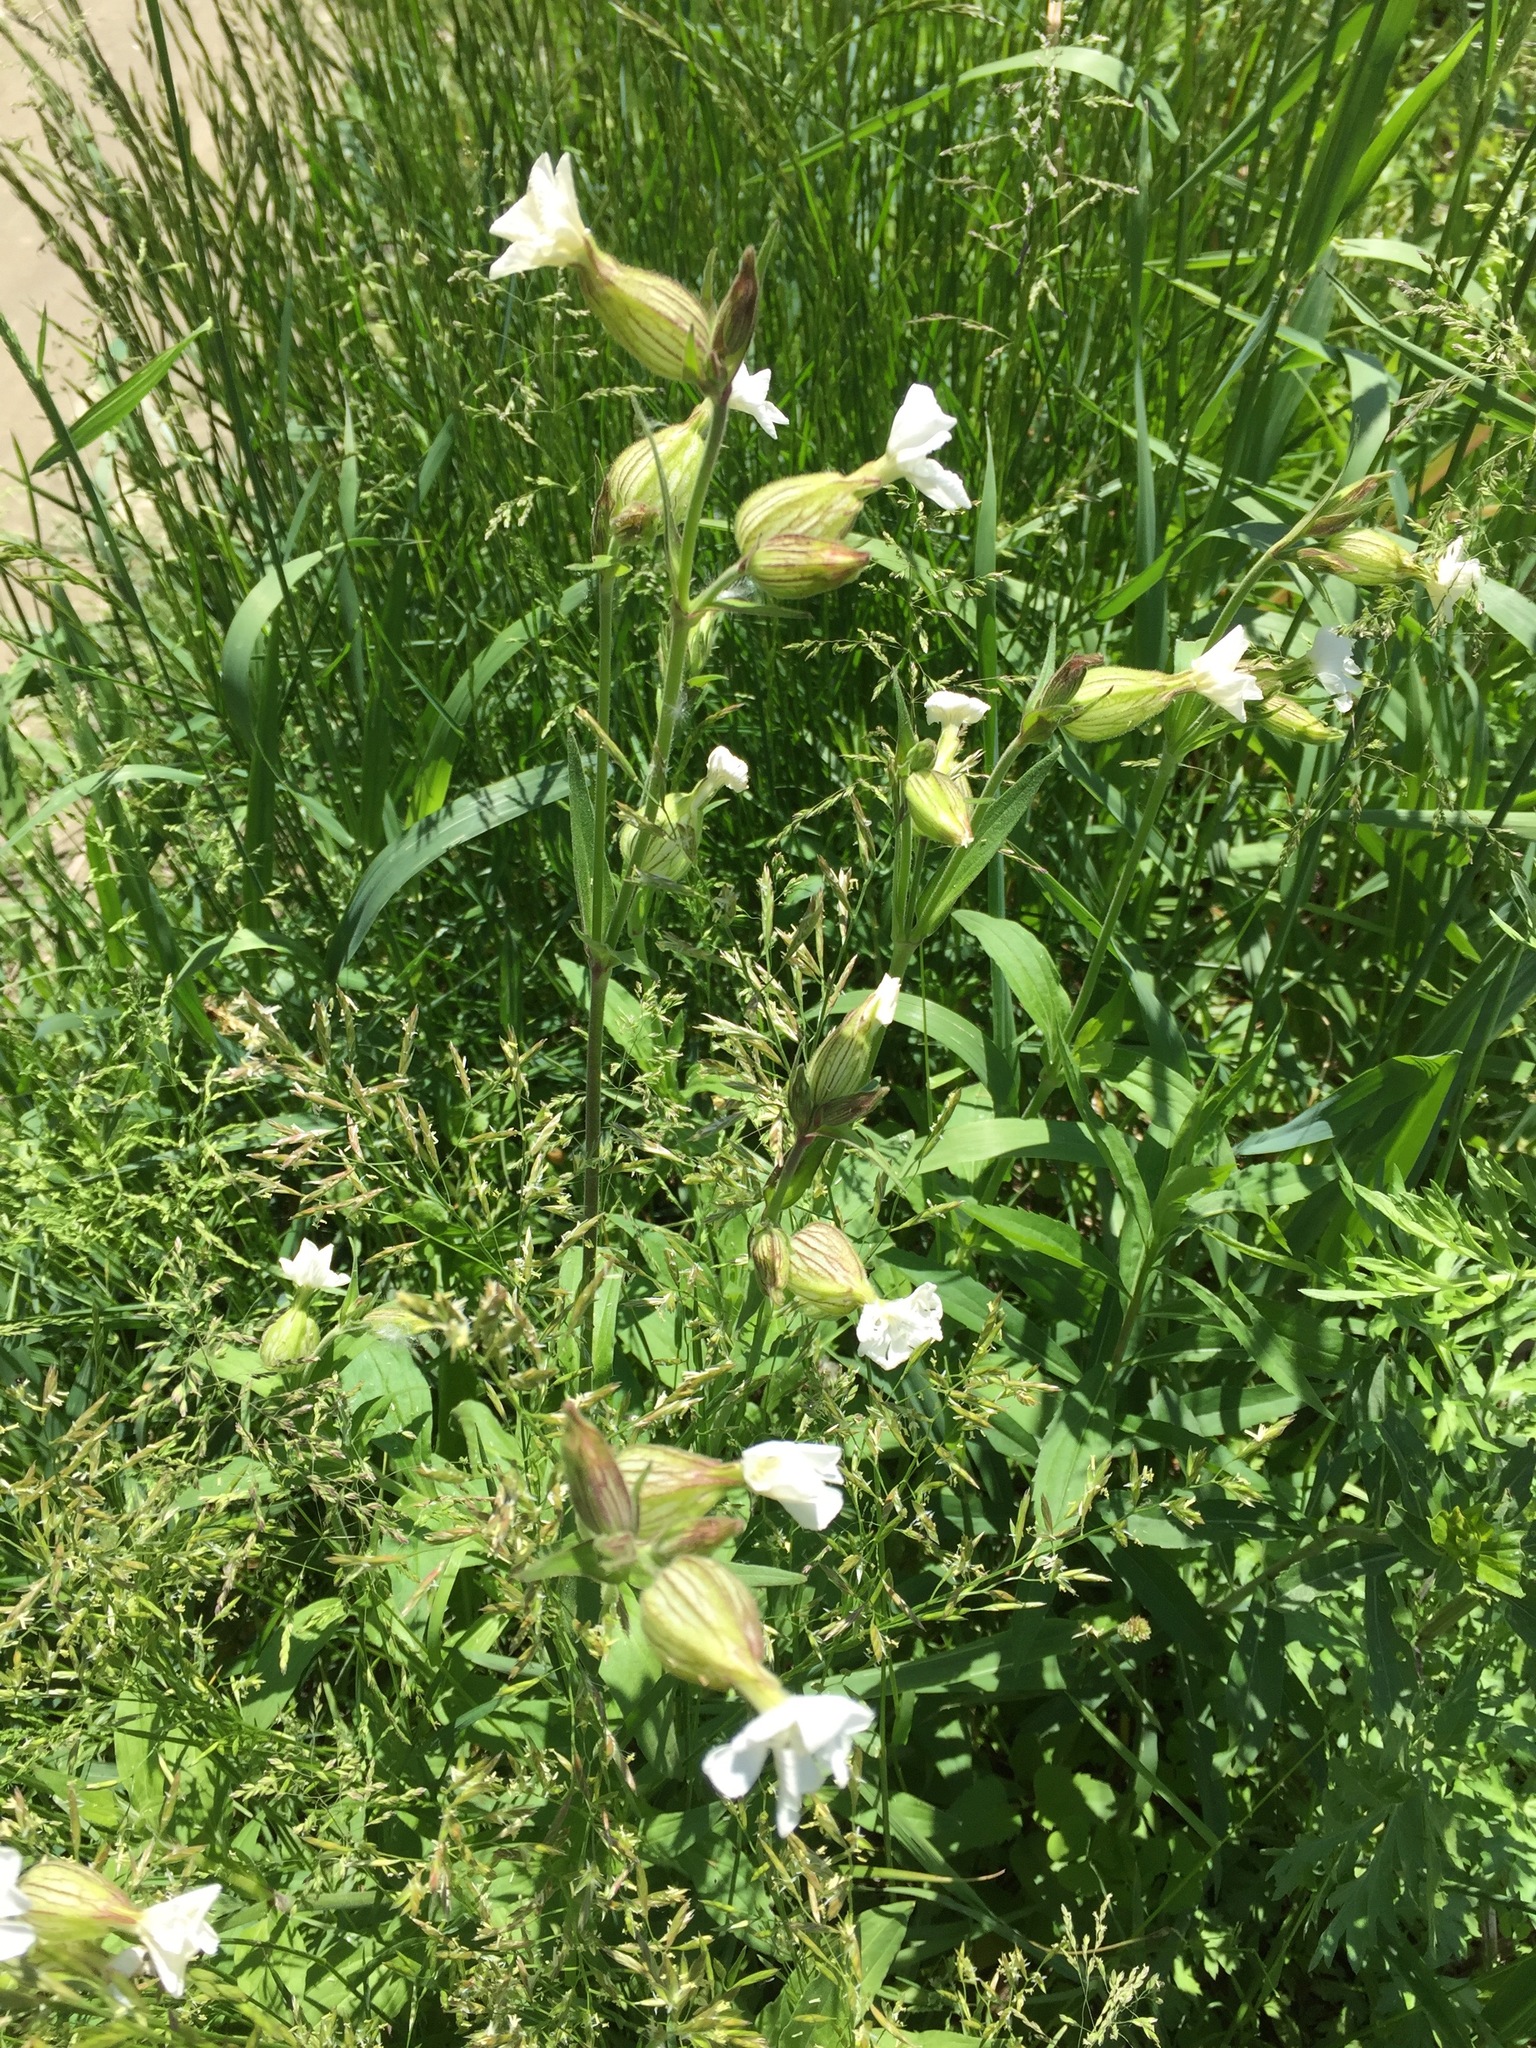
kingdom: Plantae
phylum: Tracheophyta
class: Magnoliopsida
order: Caryophyllales
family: Caryophyllaceae
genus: Silene
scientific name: Silene latifolia
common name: White campion
